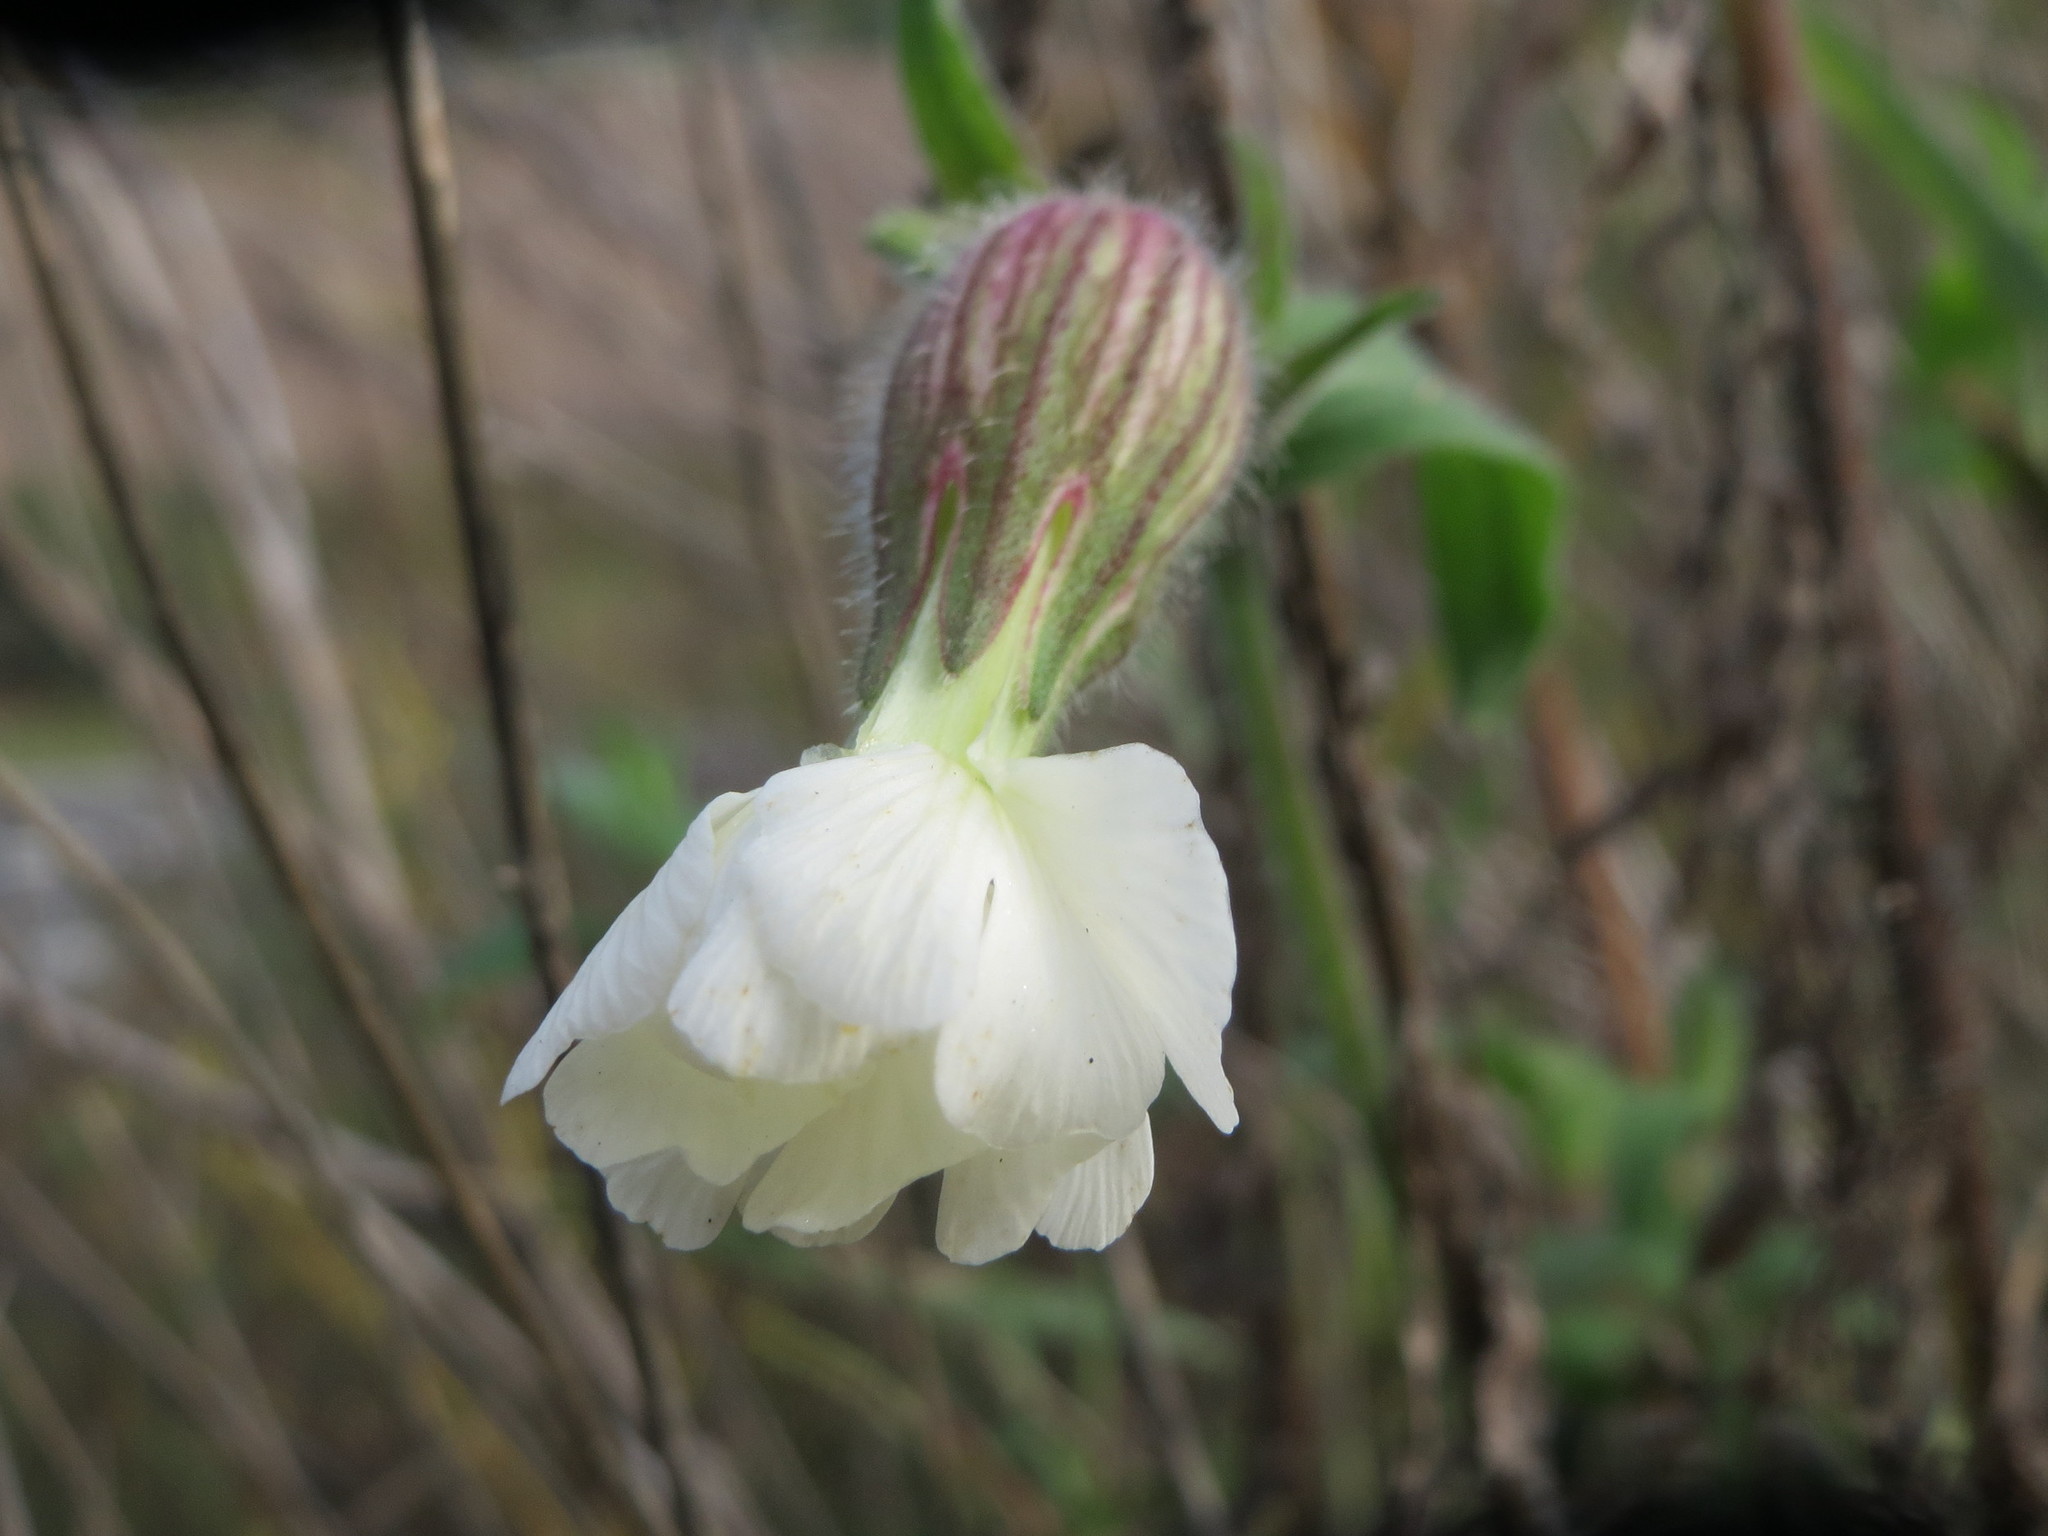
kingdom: Plantae
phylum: Tracheophyta
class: Magnoliopsida
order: Caryophyllales
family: Caryophyllaceae
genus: Silene
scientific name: Silene latifolia
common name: White campion
